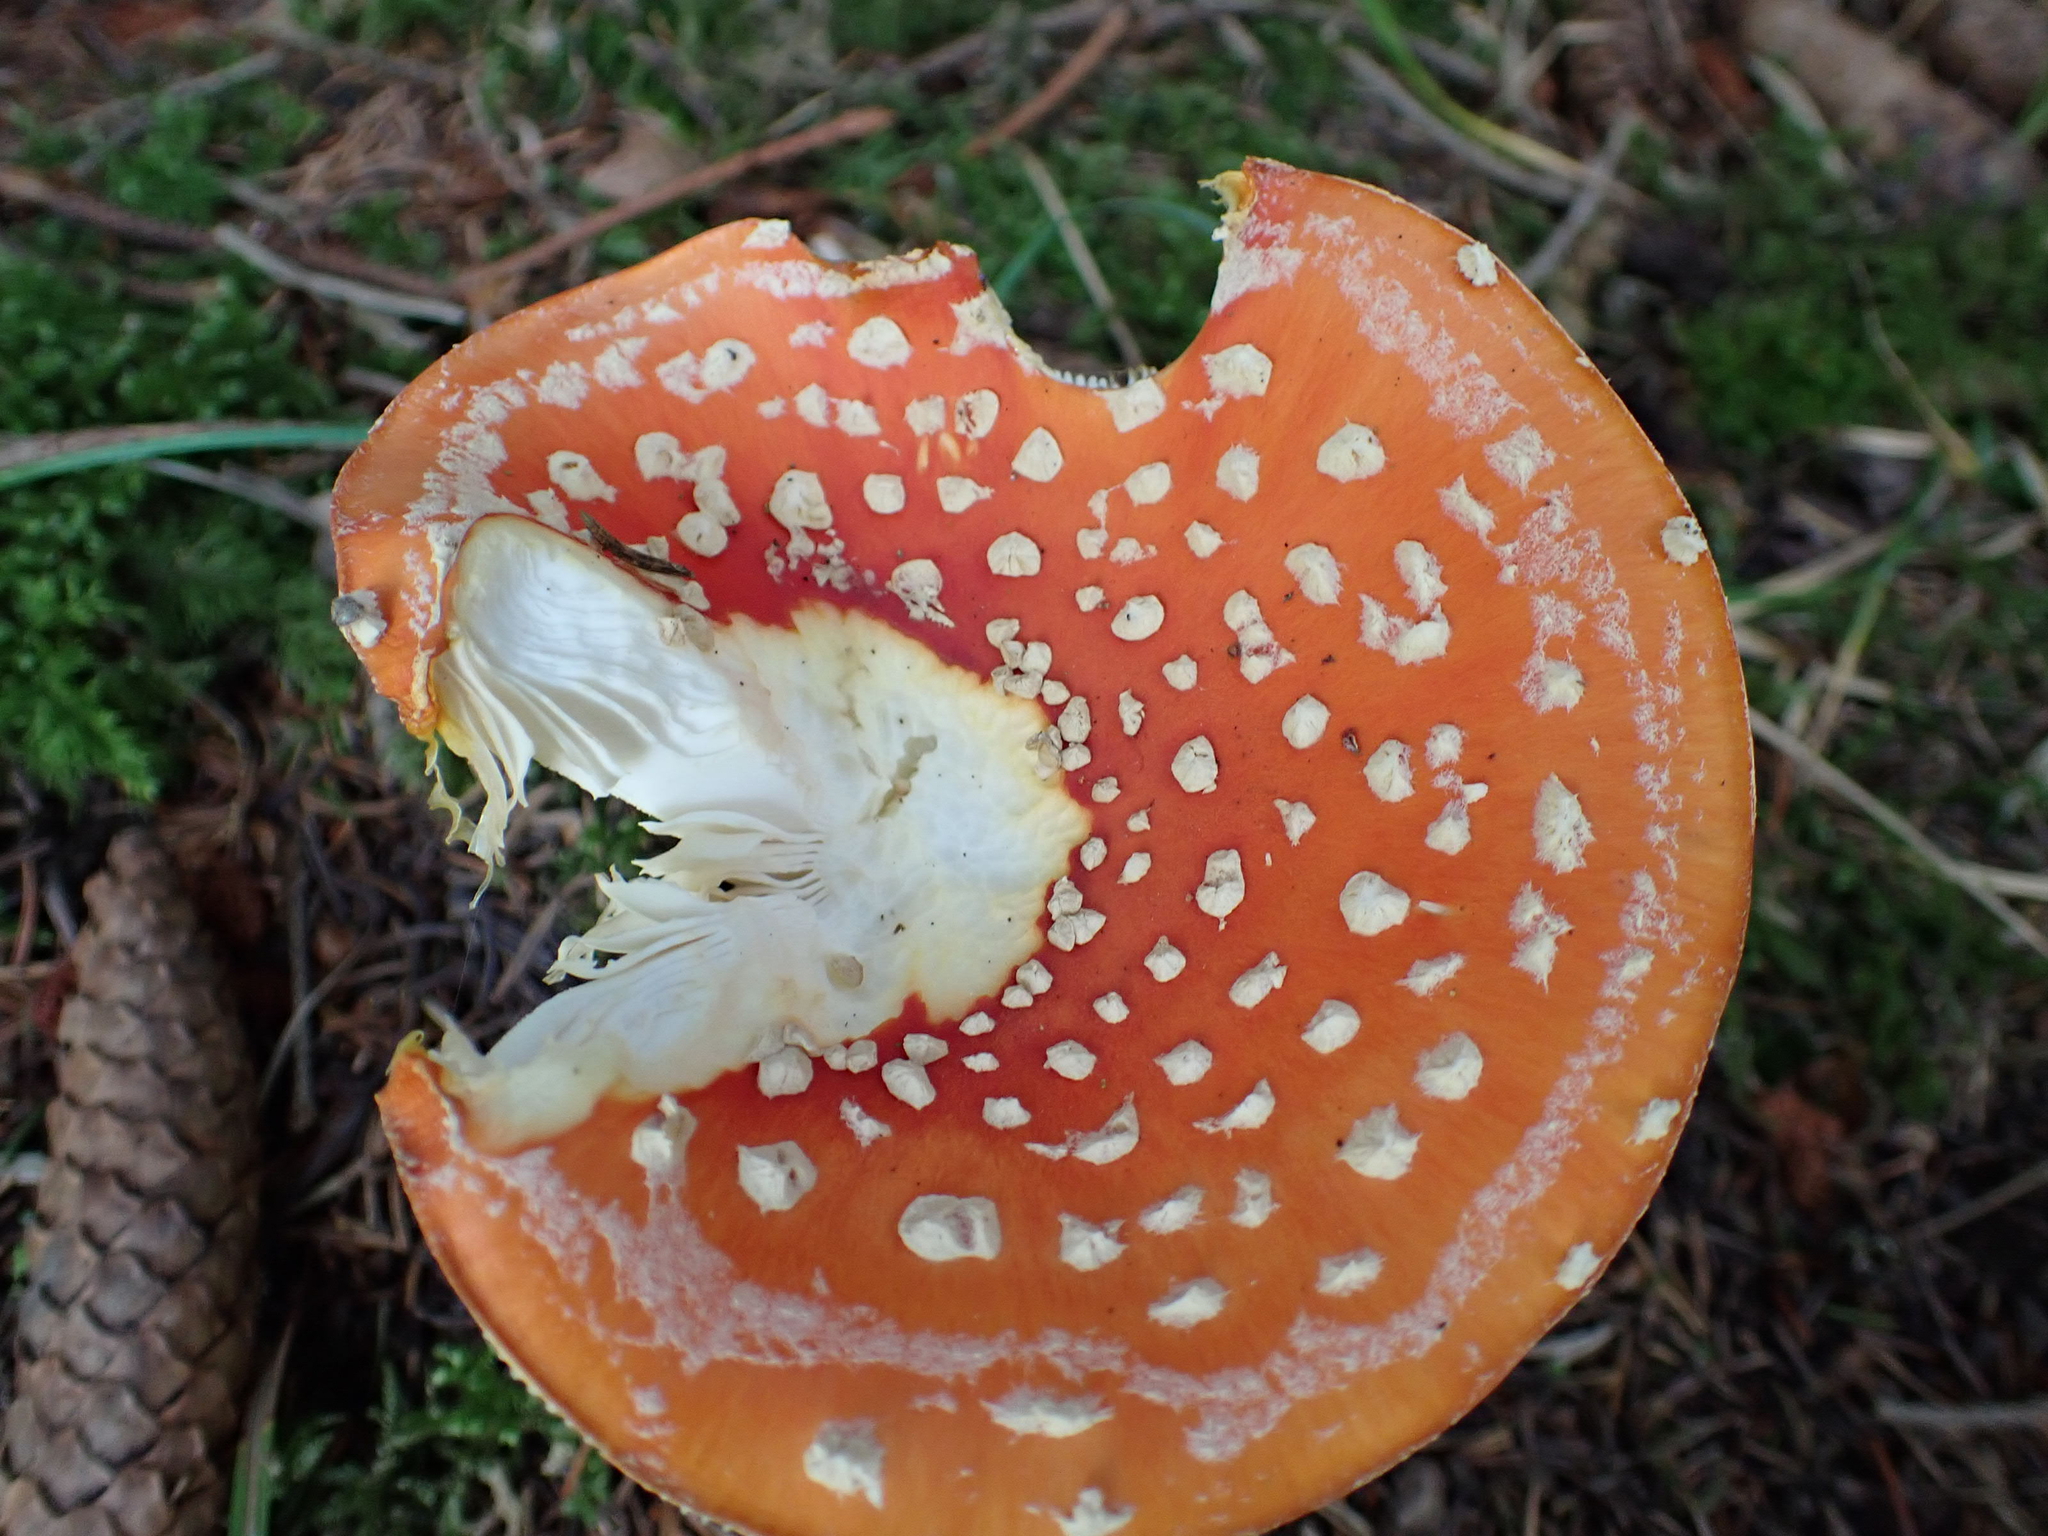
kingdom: Fungi
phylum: Basidiomycota
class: Agaricomycetes
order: Agaricales
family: Amanitaceae
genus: Amanita
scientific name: Amanita muscaria
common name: Fly agaric
